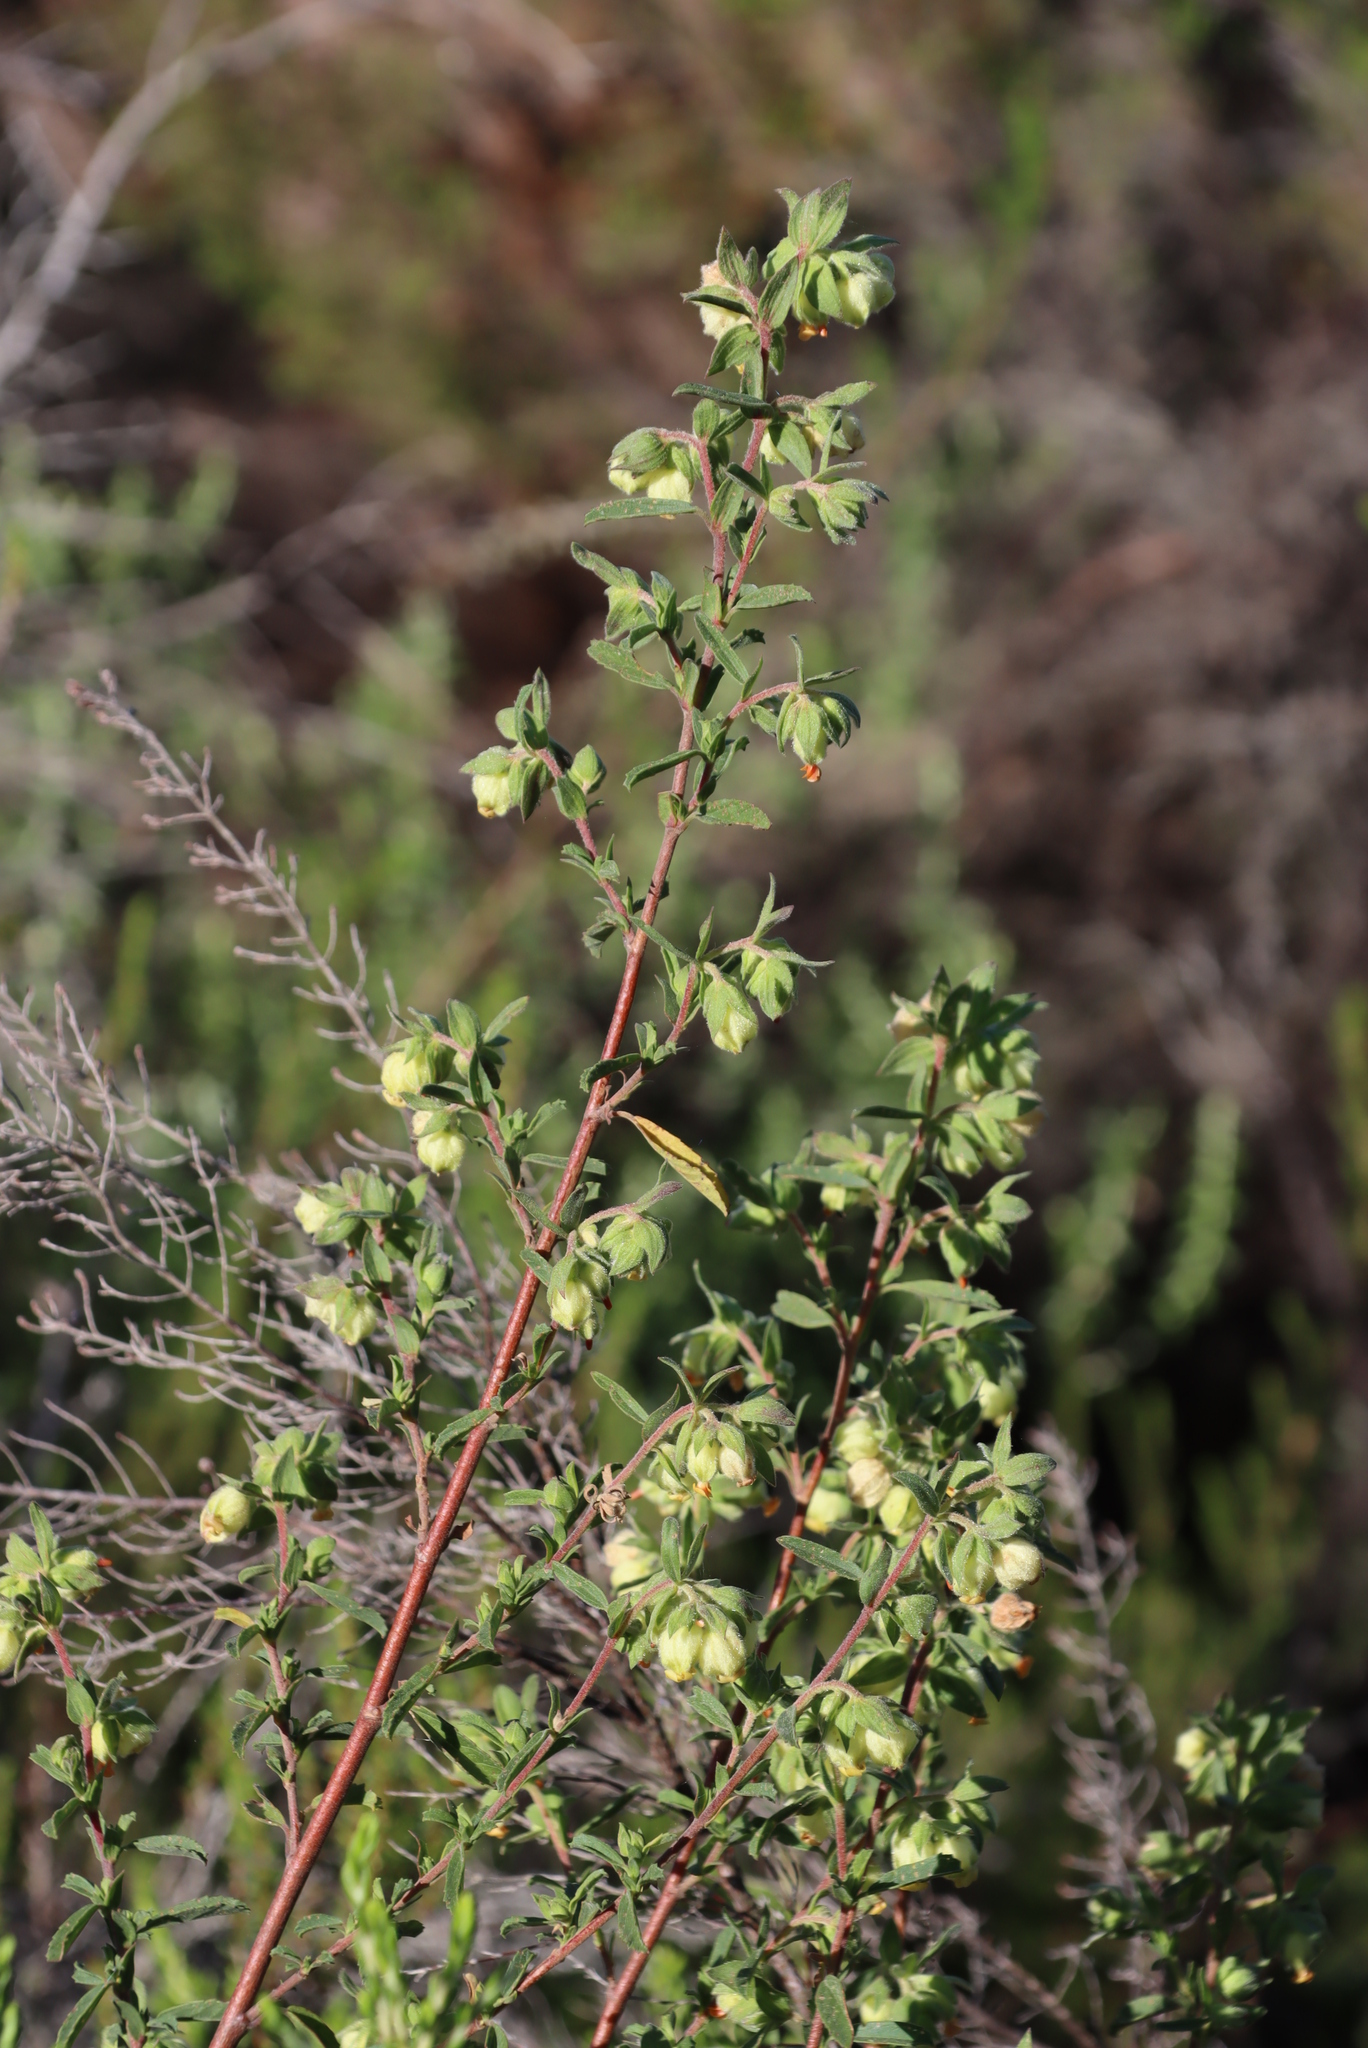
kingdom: Plantae
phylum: Tracheophyta
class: Magnoliopsida
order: Malvales
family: Malvaceae
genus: Hermannia
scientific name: Hermannia hyssopifolia
